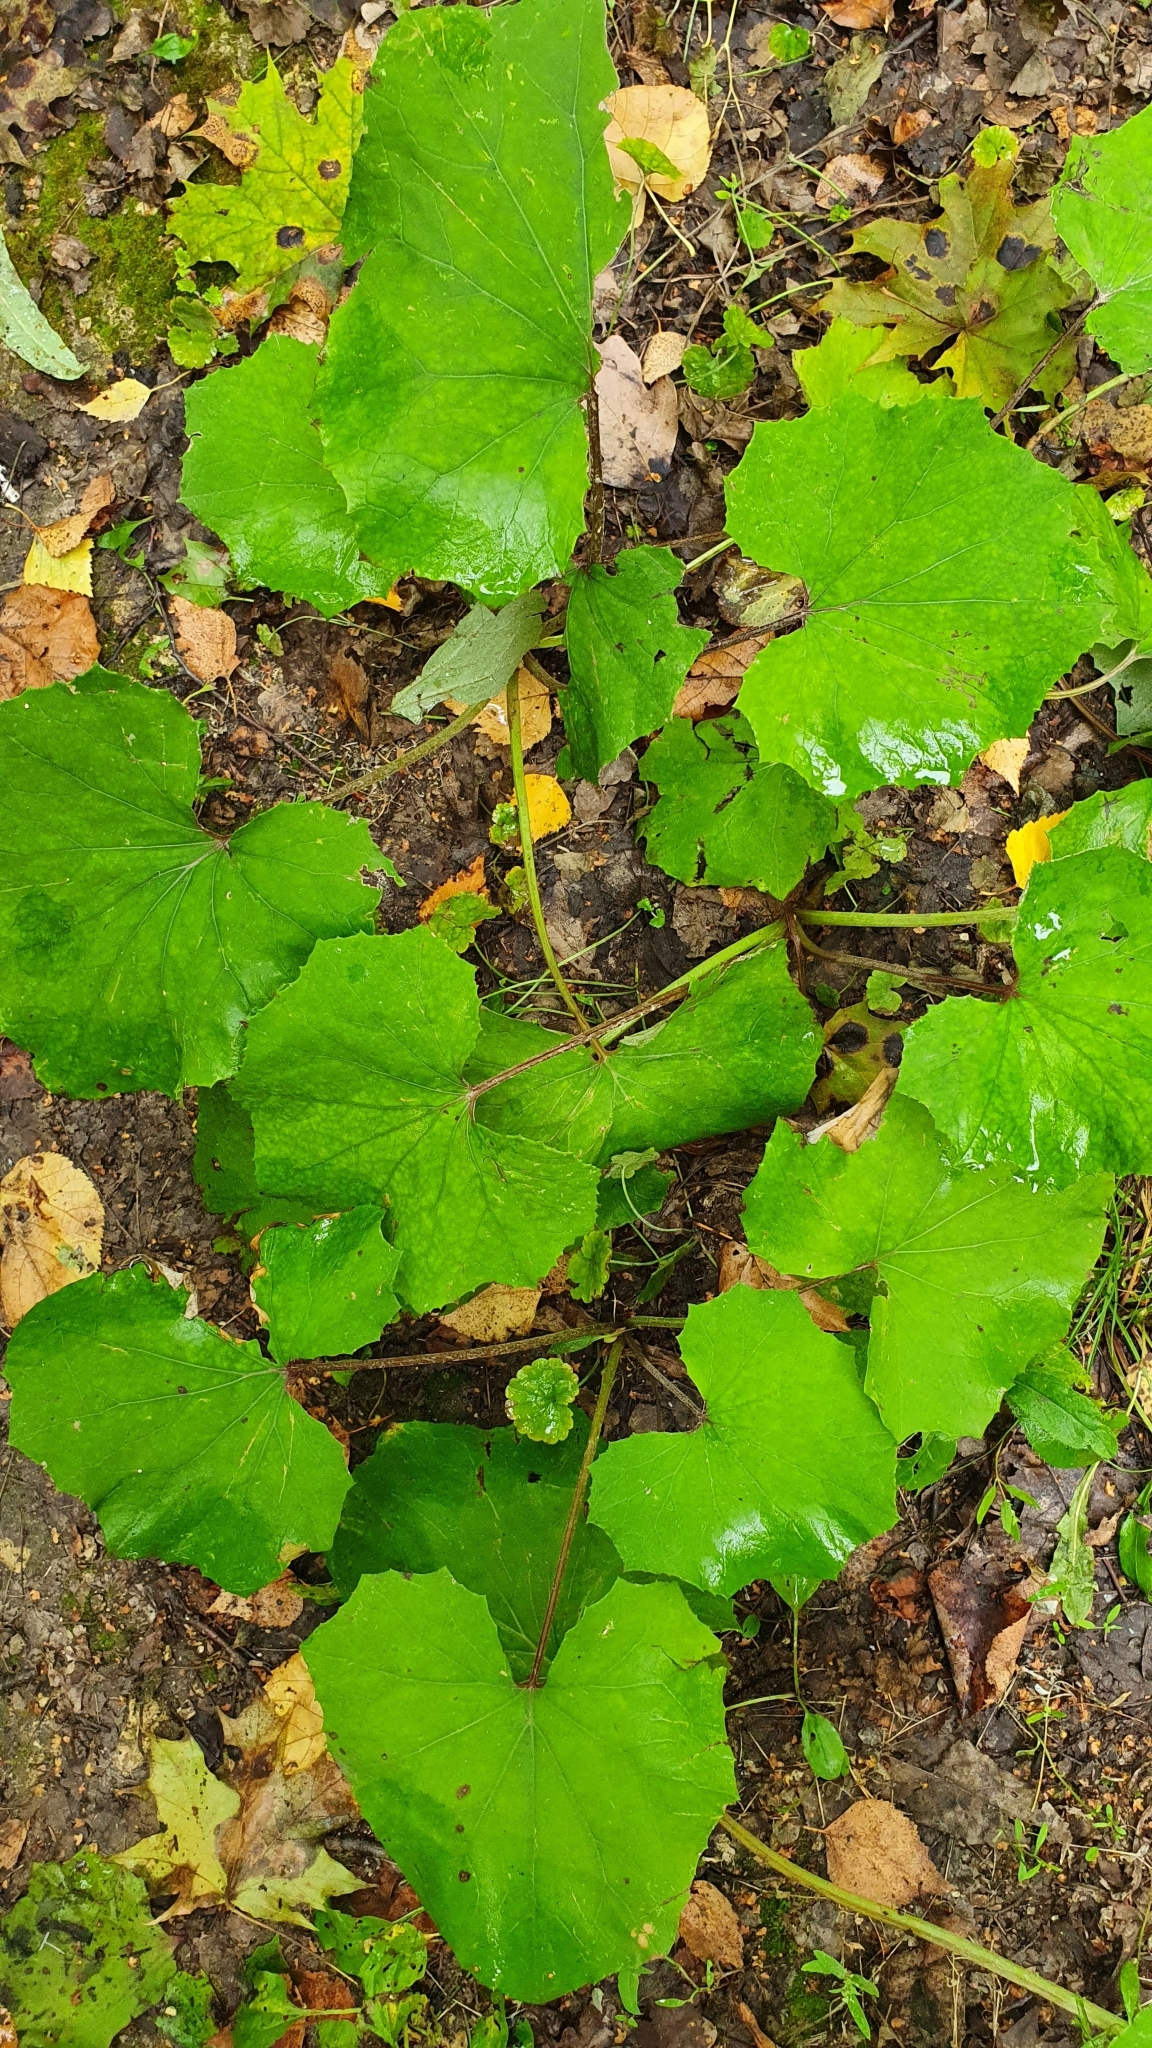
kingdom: Plantae
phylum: Tracheophyta
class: Magnoliopsida
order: Asterales
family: Asteraceae
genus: Tussilago
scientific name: Tussilago farfara
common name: Coltsfoot
